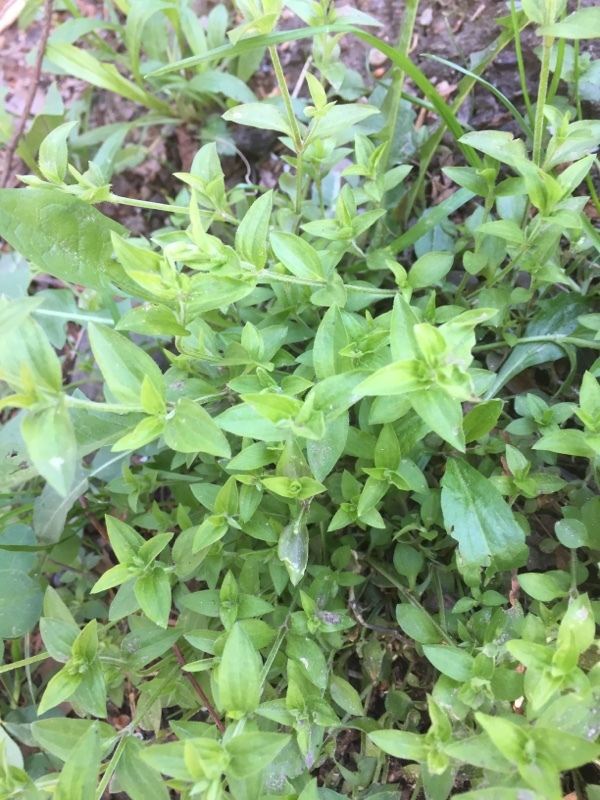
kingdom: Plantae
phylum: Tracheophyta
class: Magnoliopsida
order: Caryophyllales
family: Caryophyllaceae
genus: Moehringia
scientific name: Moehringia trinervia
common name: Three-nerved sandwort
